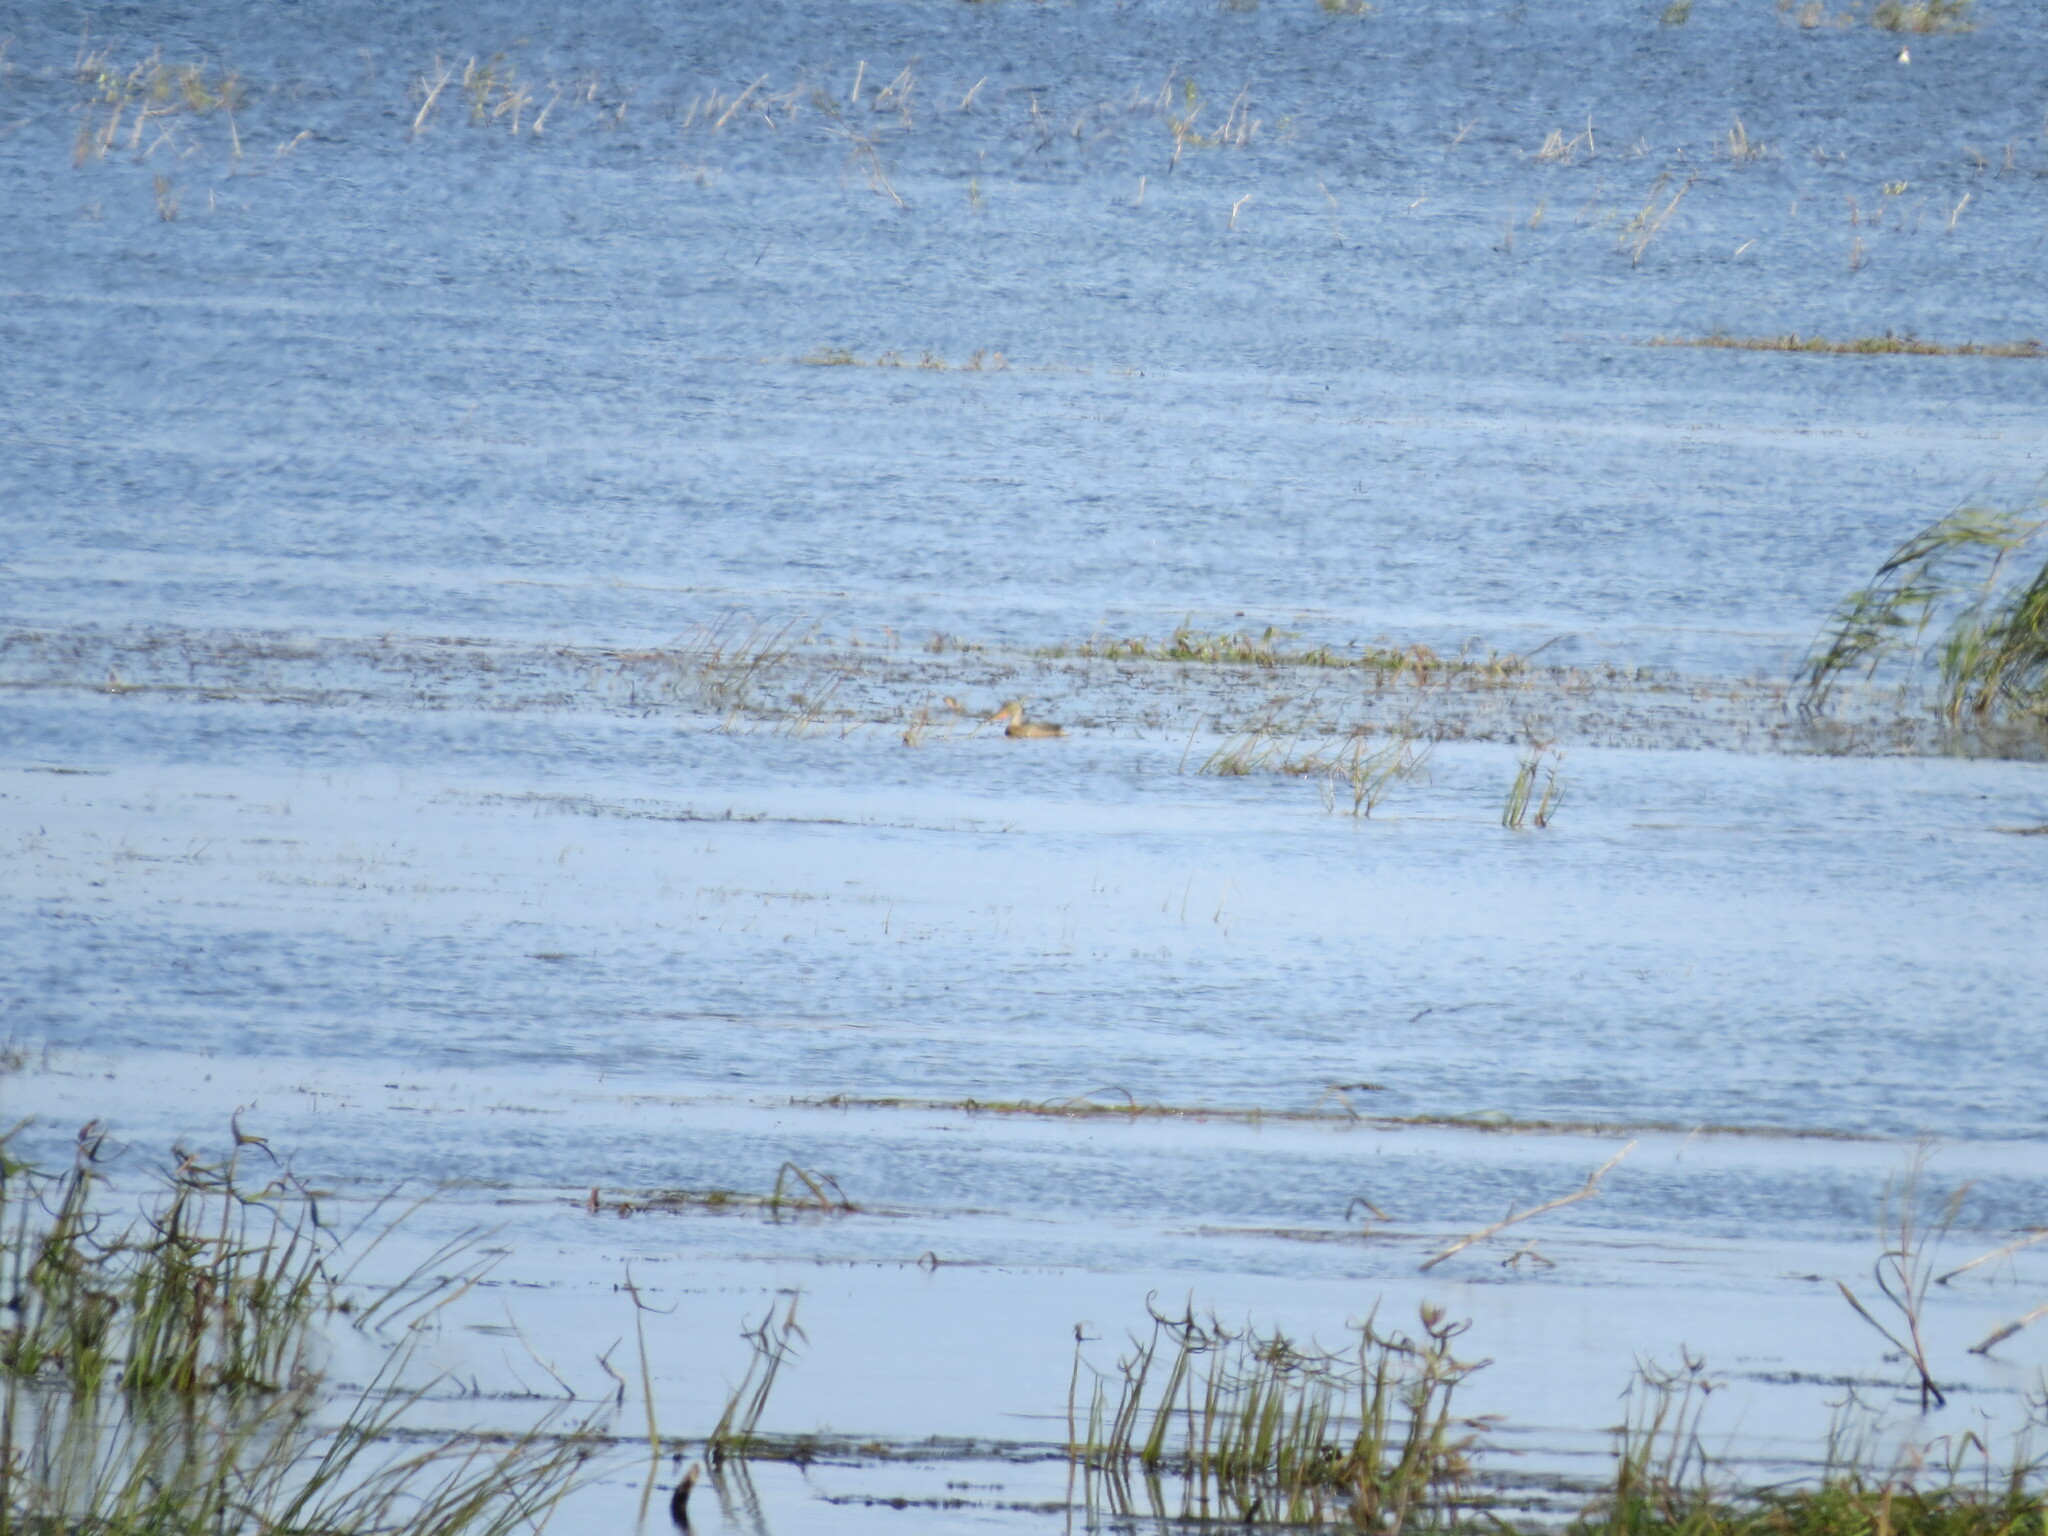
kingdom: Animalia
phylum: Chordata
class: Aves
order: Anseriformes
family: Anatidae
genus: Spatula
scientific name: Spatula clypeata
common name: Northern shoveler
